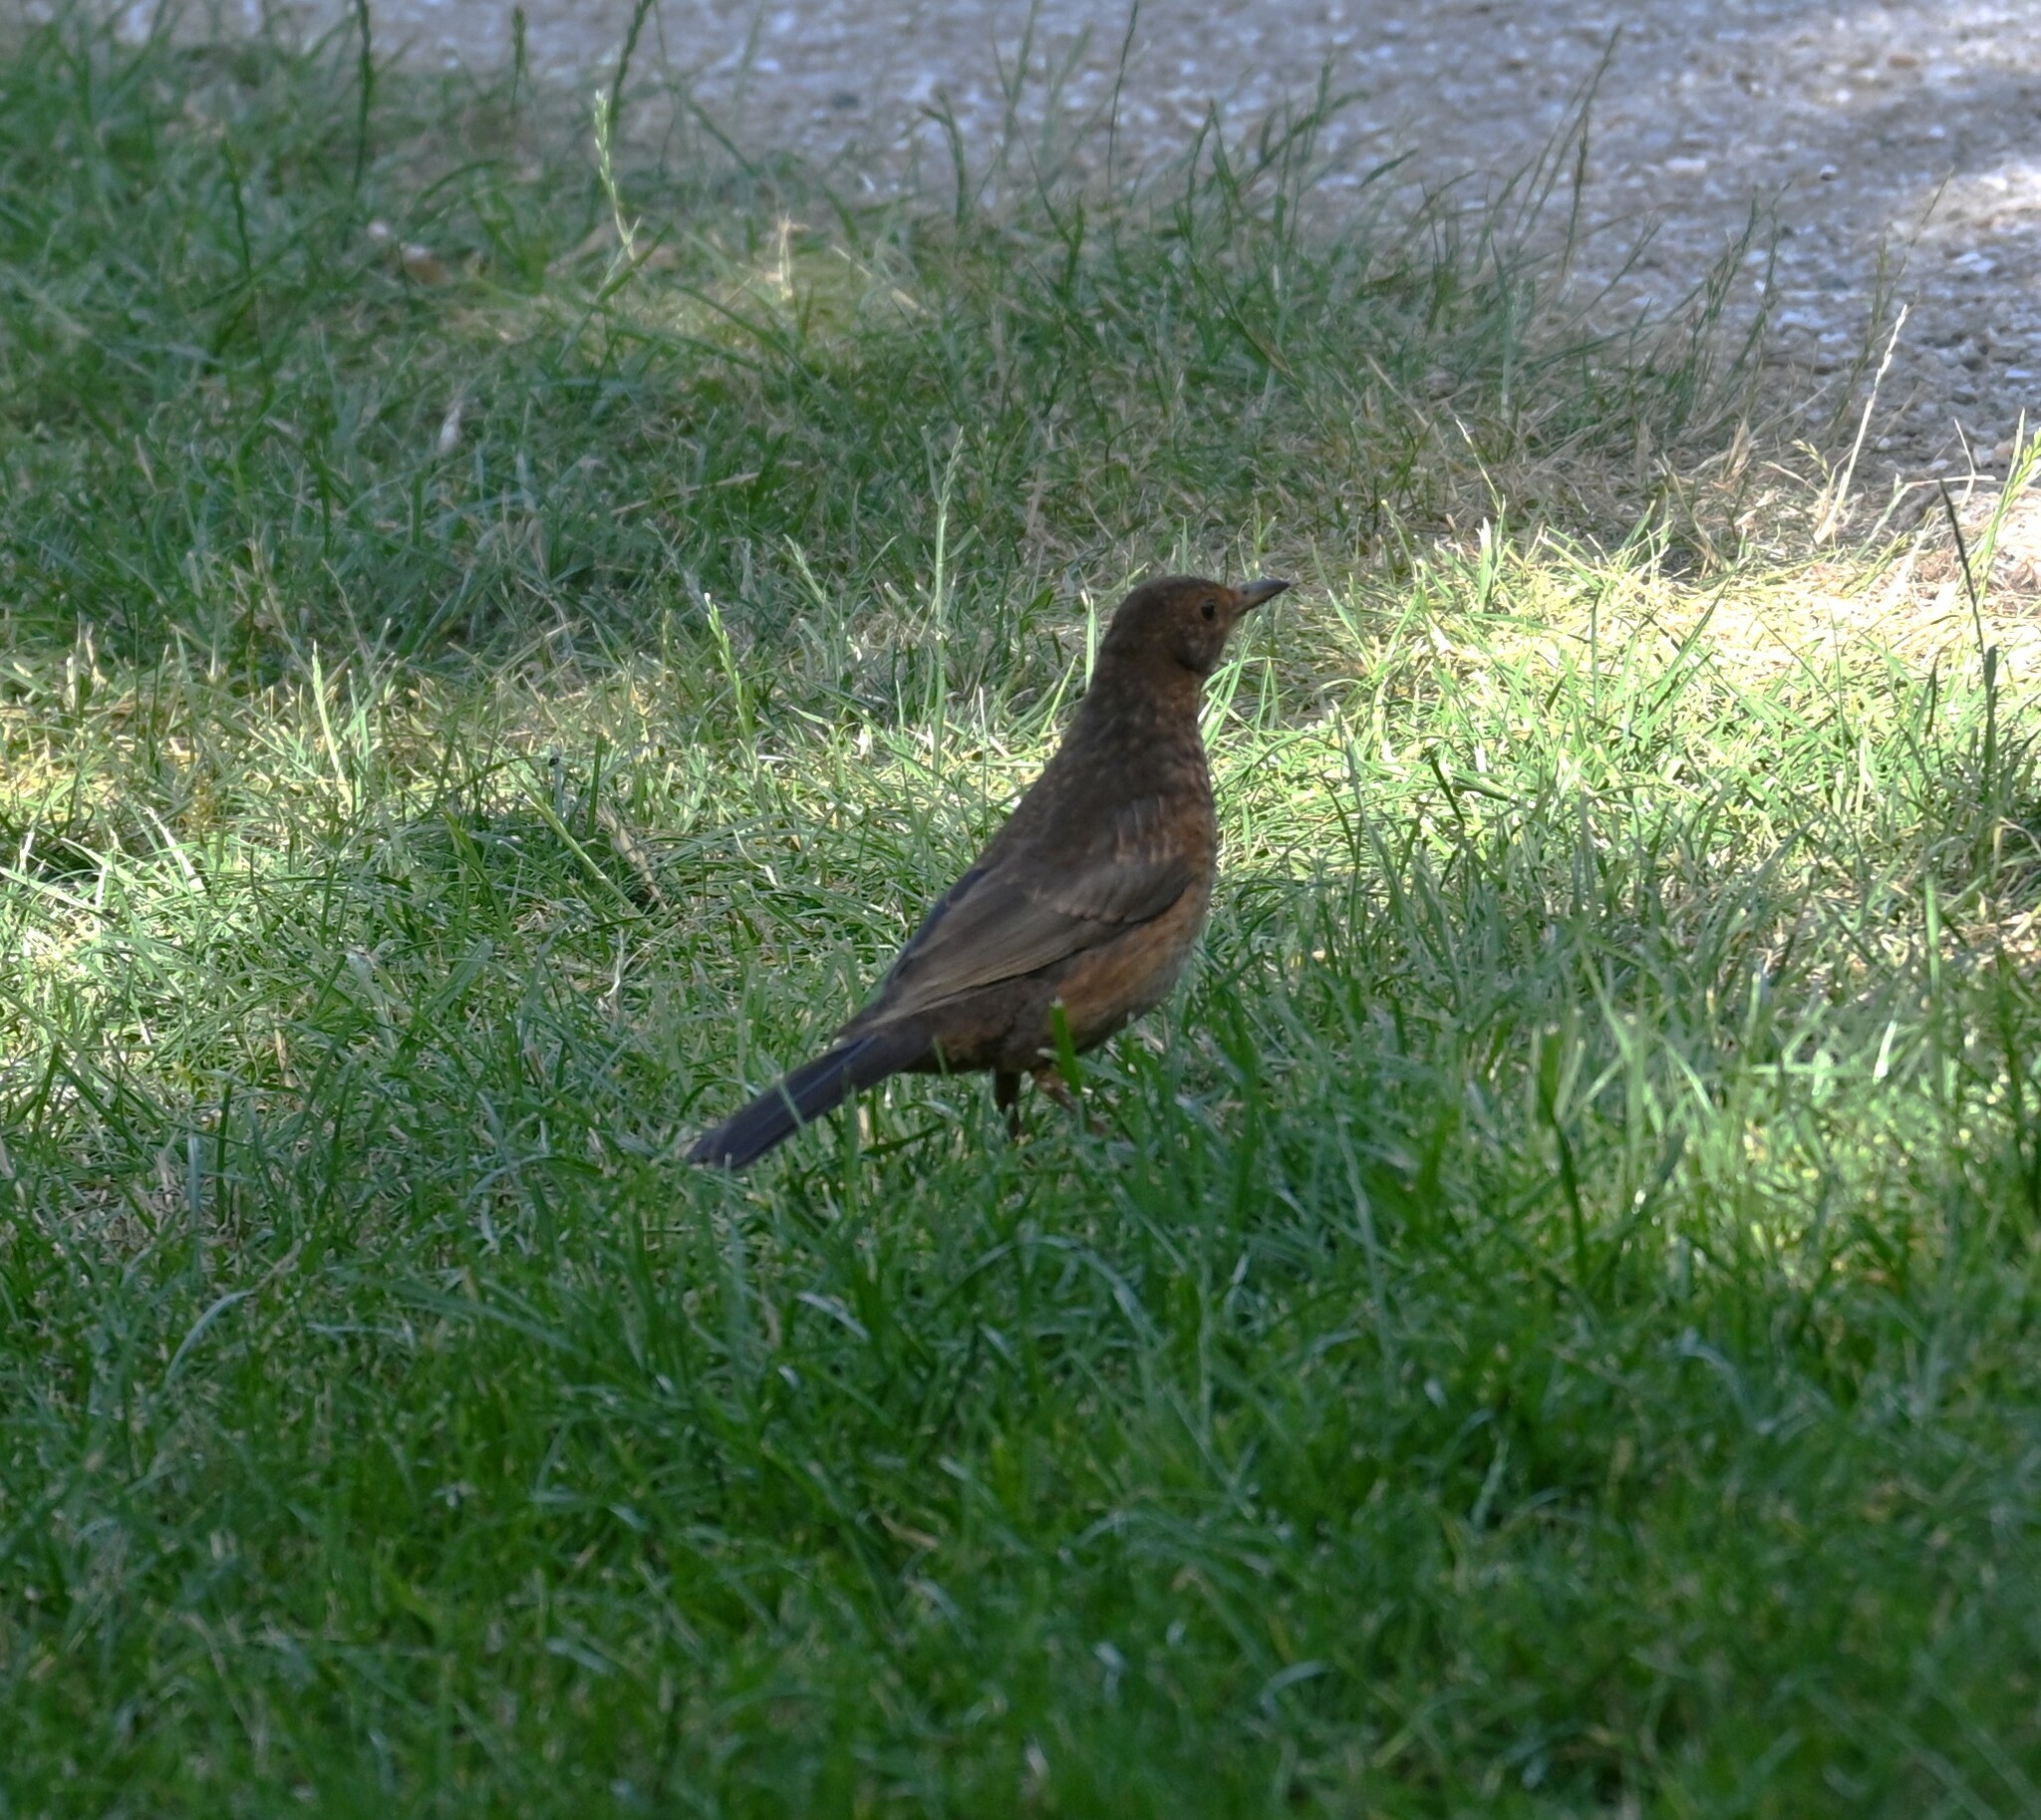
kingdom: Animalia
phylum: Chordata
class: Aves
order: Passeriformes
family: Turdidae
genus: Turdus
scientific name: Turdus merula
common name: Common blackbird
